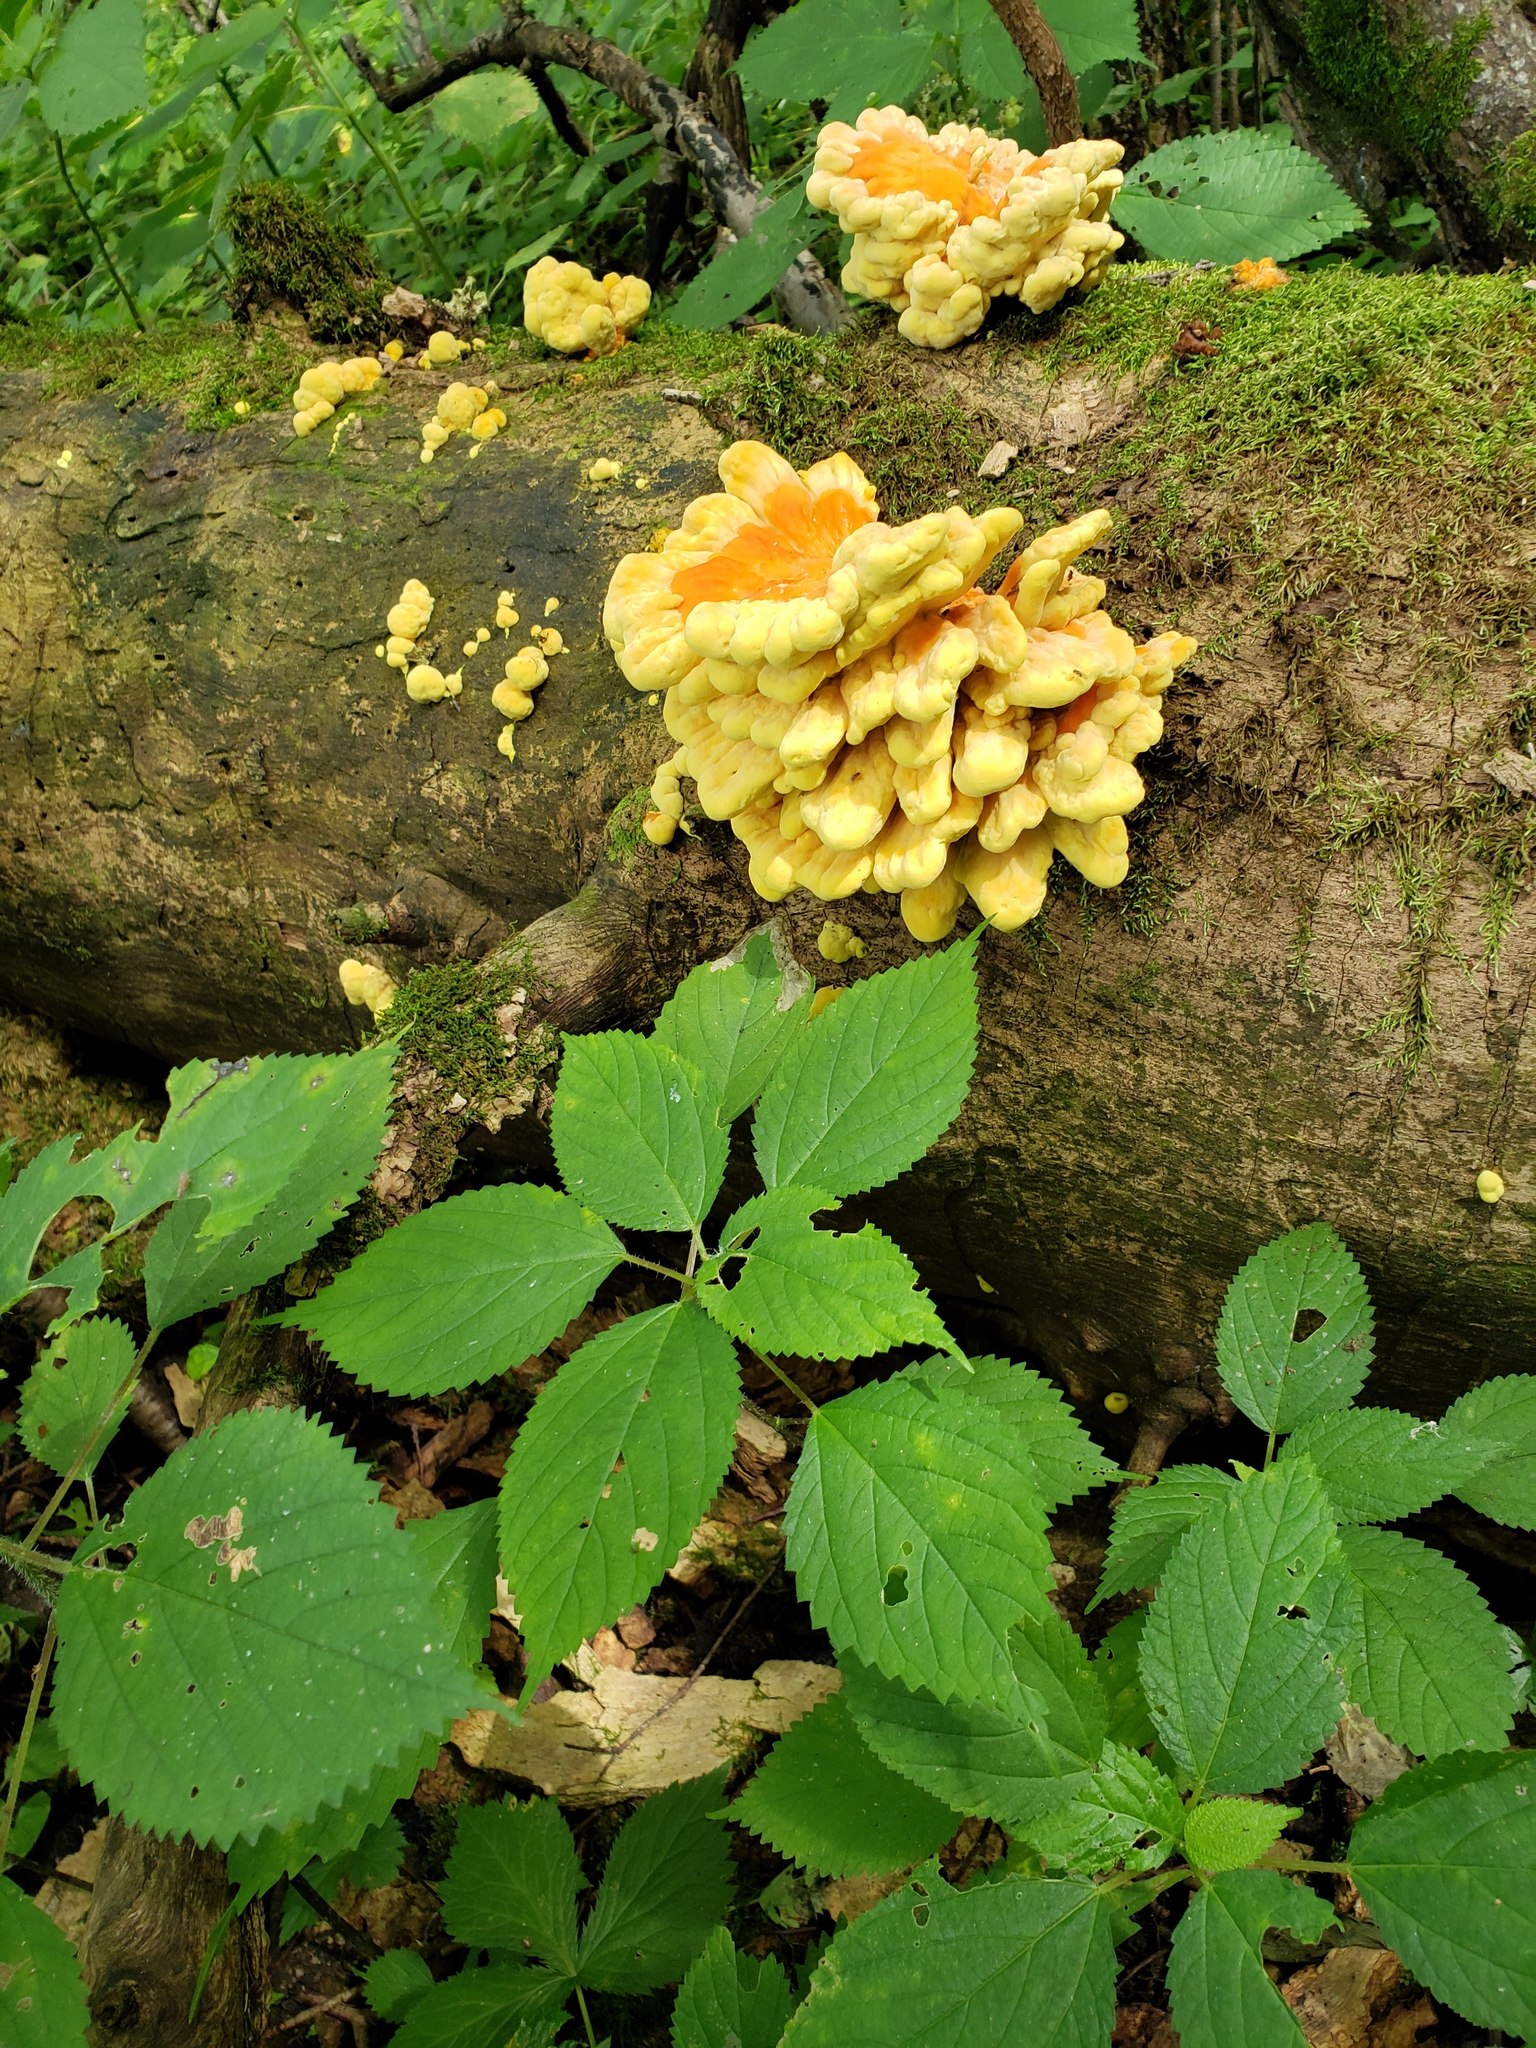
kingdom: Fungi
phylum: Basidiomycota
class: Agaricomycetes
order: Polyporales
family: Laetiporaceae
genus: Laetiporus
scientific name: Laetiporus sulphureus
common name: Chicken of the woods
